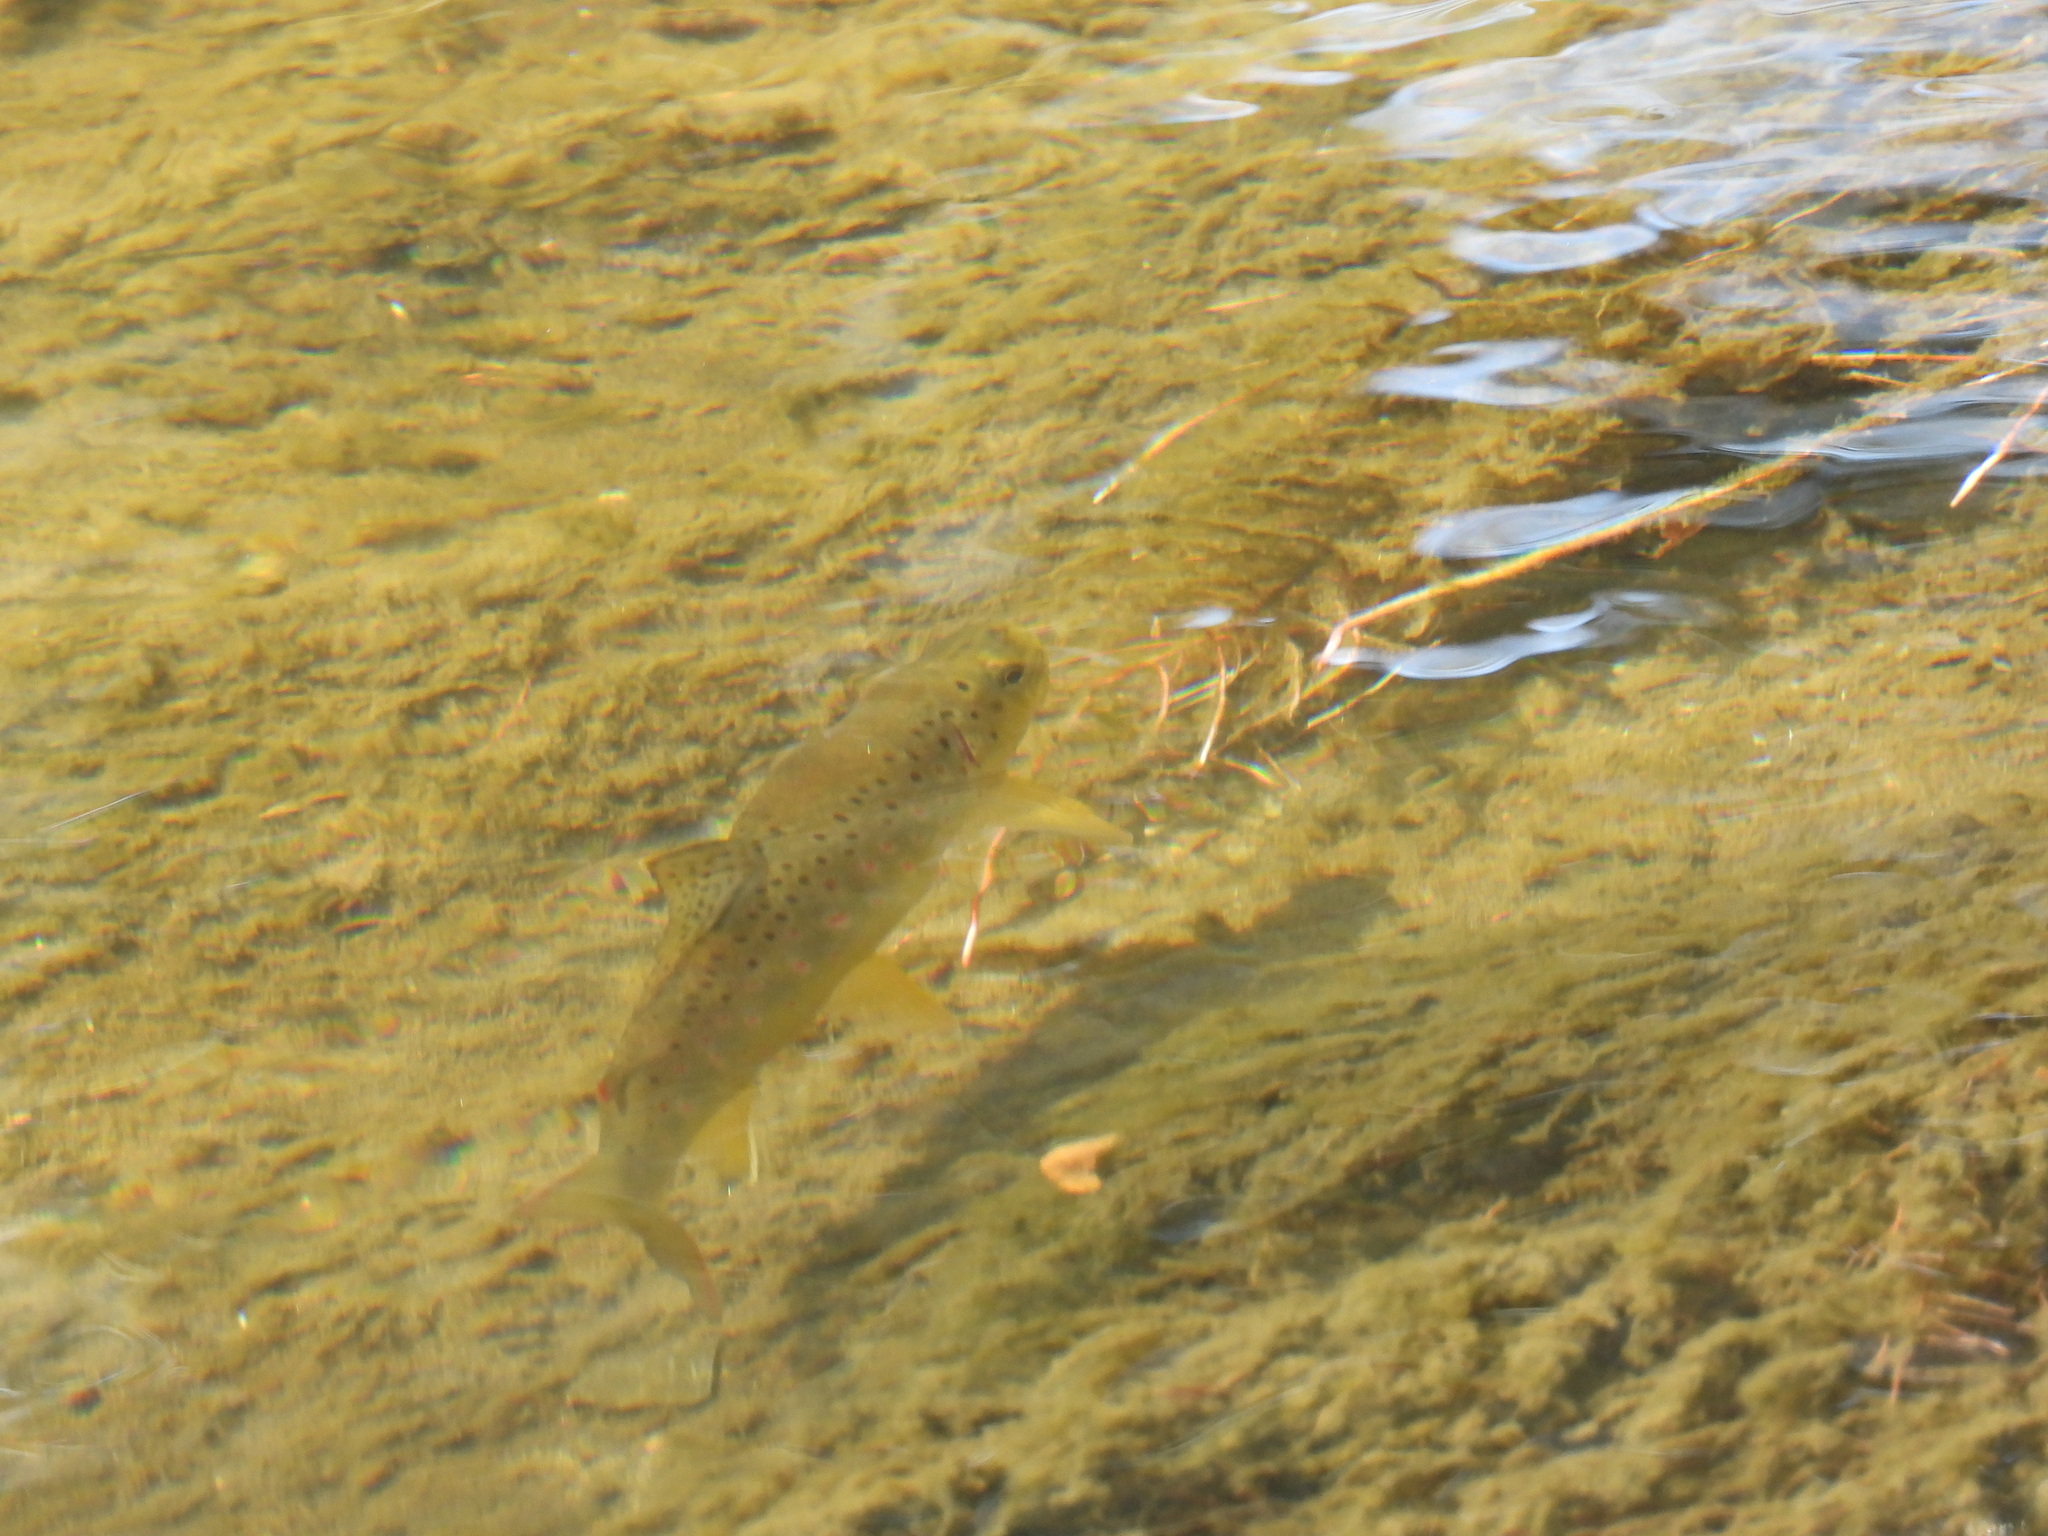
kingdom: Animalia
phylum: Chordata
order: Salmoniformes
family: Salmonidae
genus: Salmo
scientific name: Salmo trutta
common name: Brown trout
